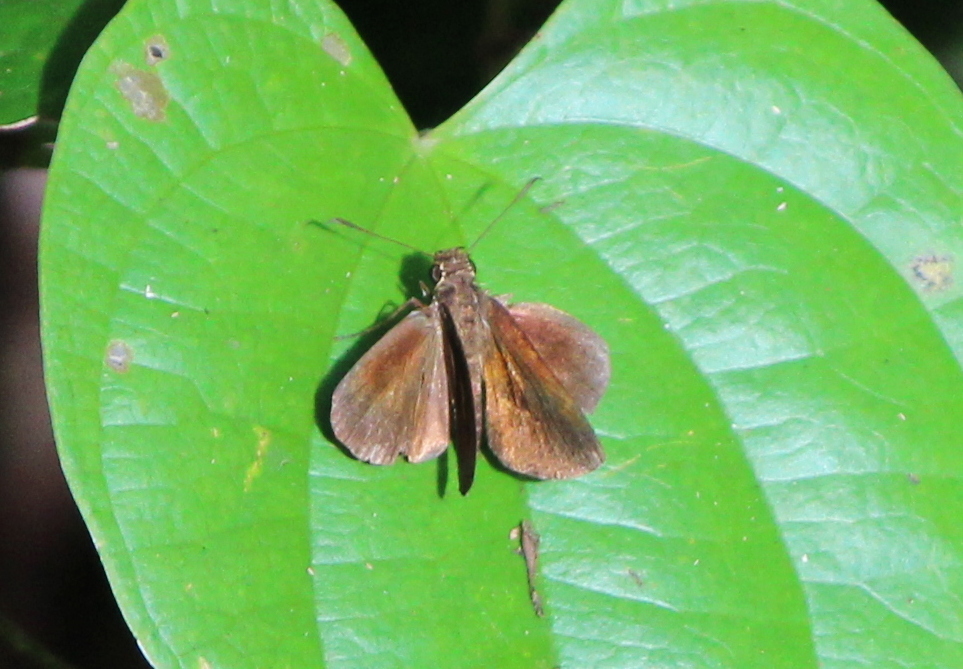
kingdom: Animalia
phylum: Arthropoda
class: Insecta
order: Lepidoptera
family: Hesperiidae
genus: Iambrix
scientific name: Iambrix salsala
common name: Chestnut bob
